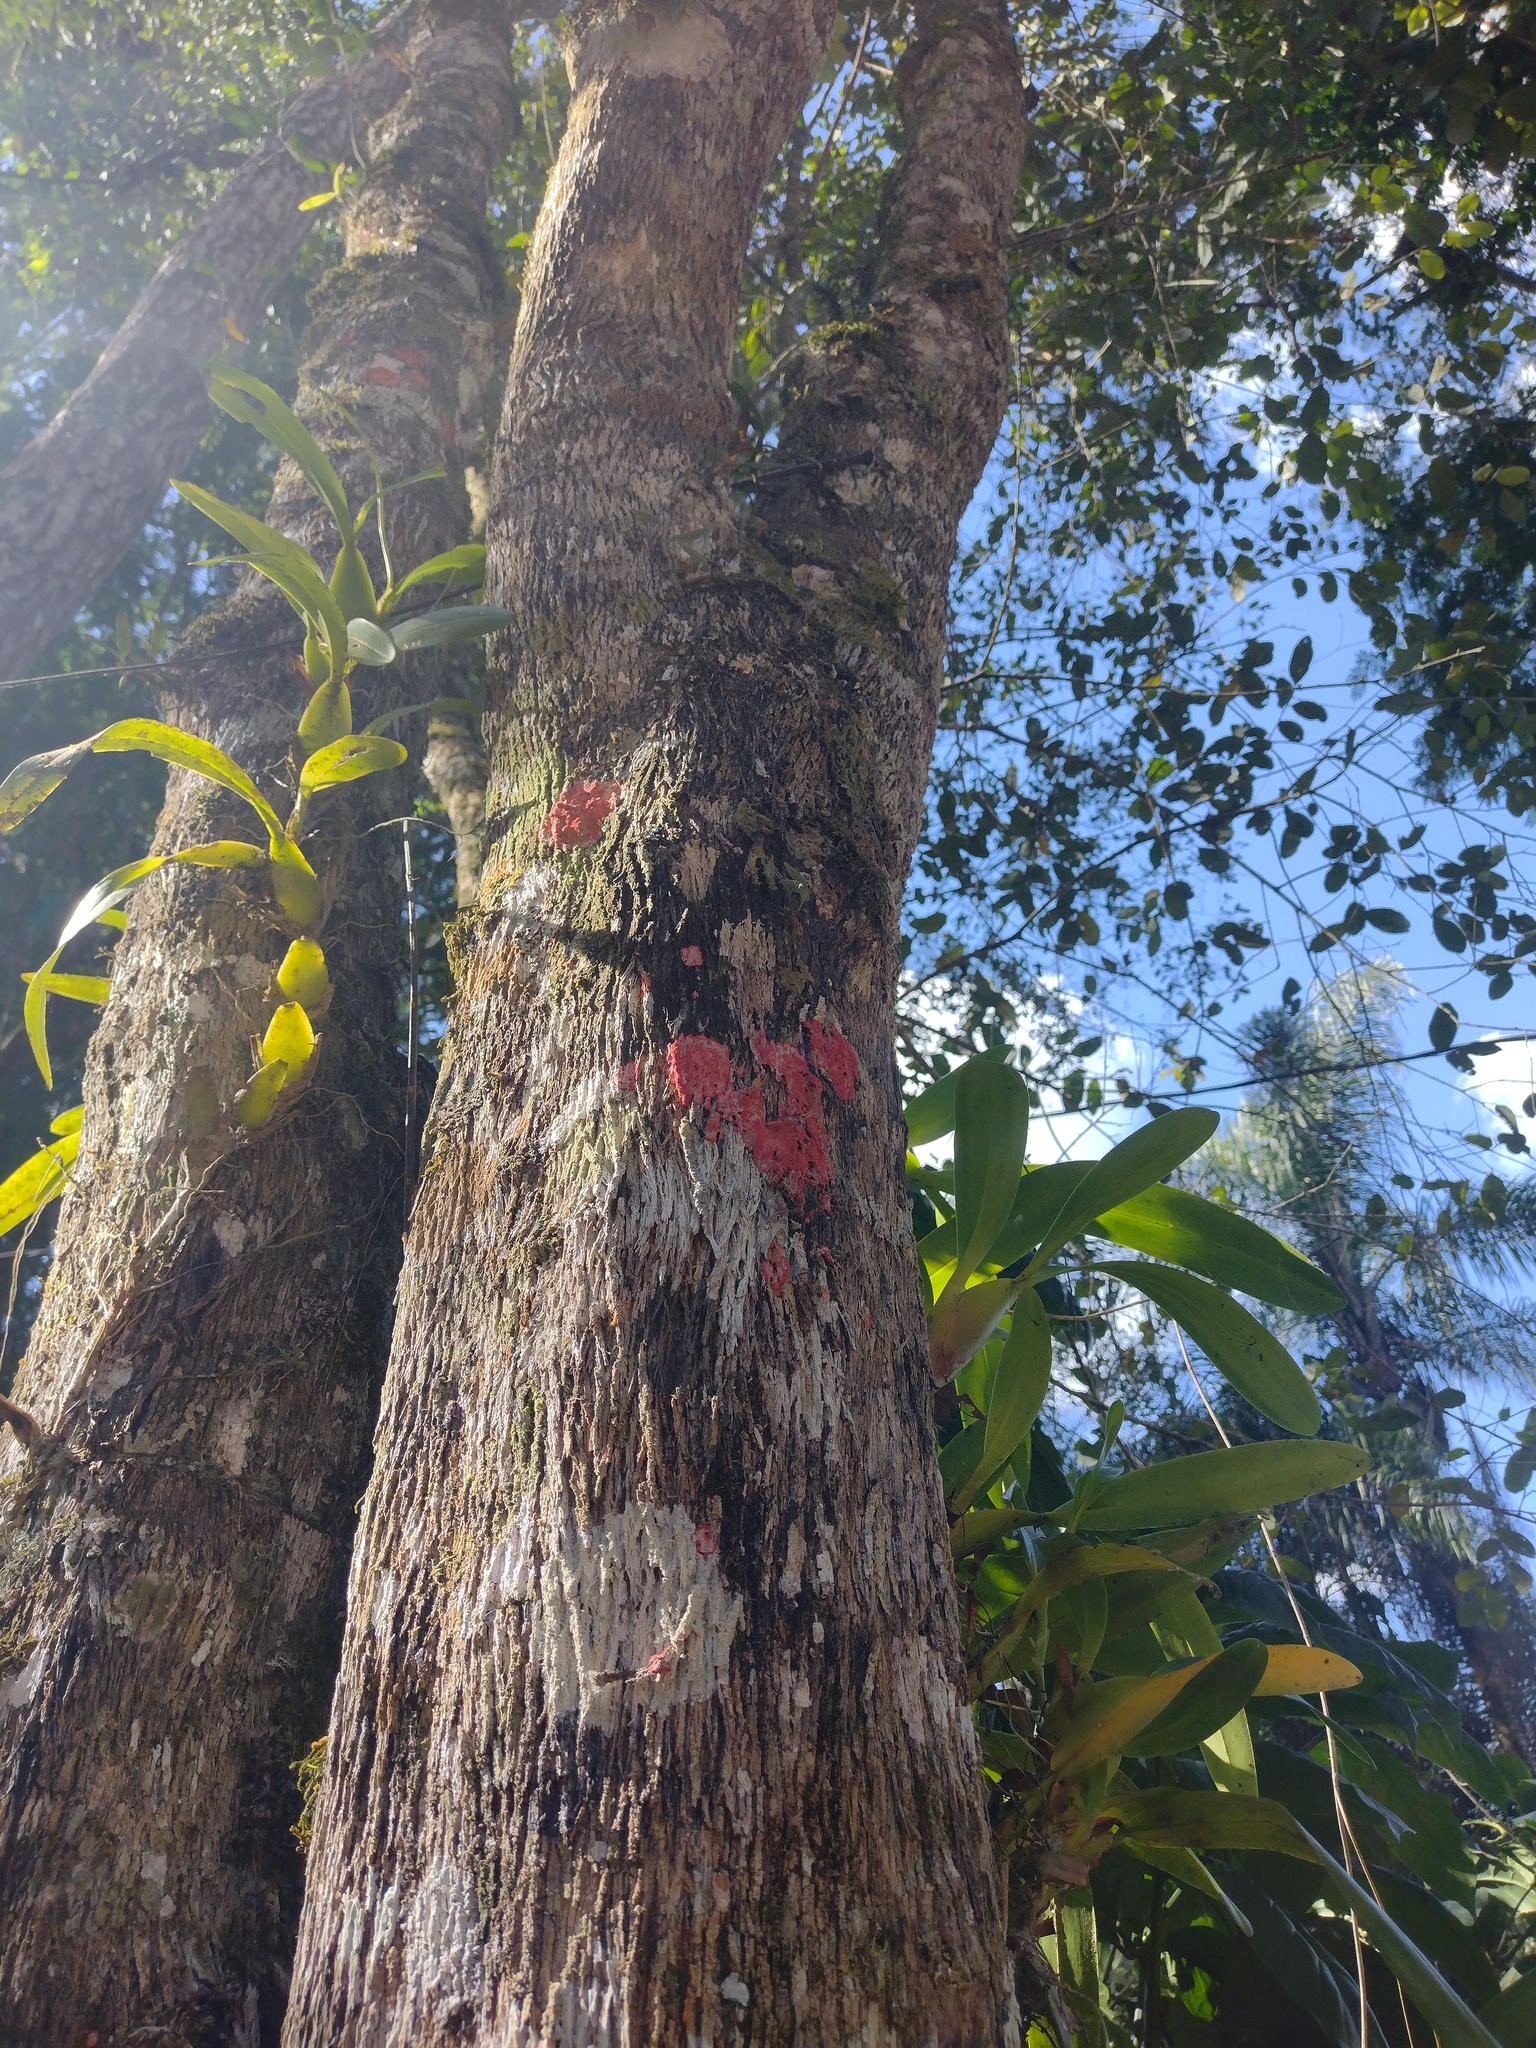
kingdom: Fungi
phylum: Ascomycota
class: Arthoniomycetes
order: Arthoniales
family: Arthoniaceae
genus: Herpothallon
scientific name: Herpothallon rubrocinctum
